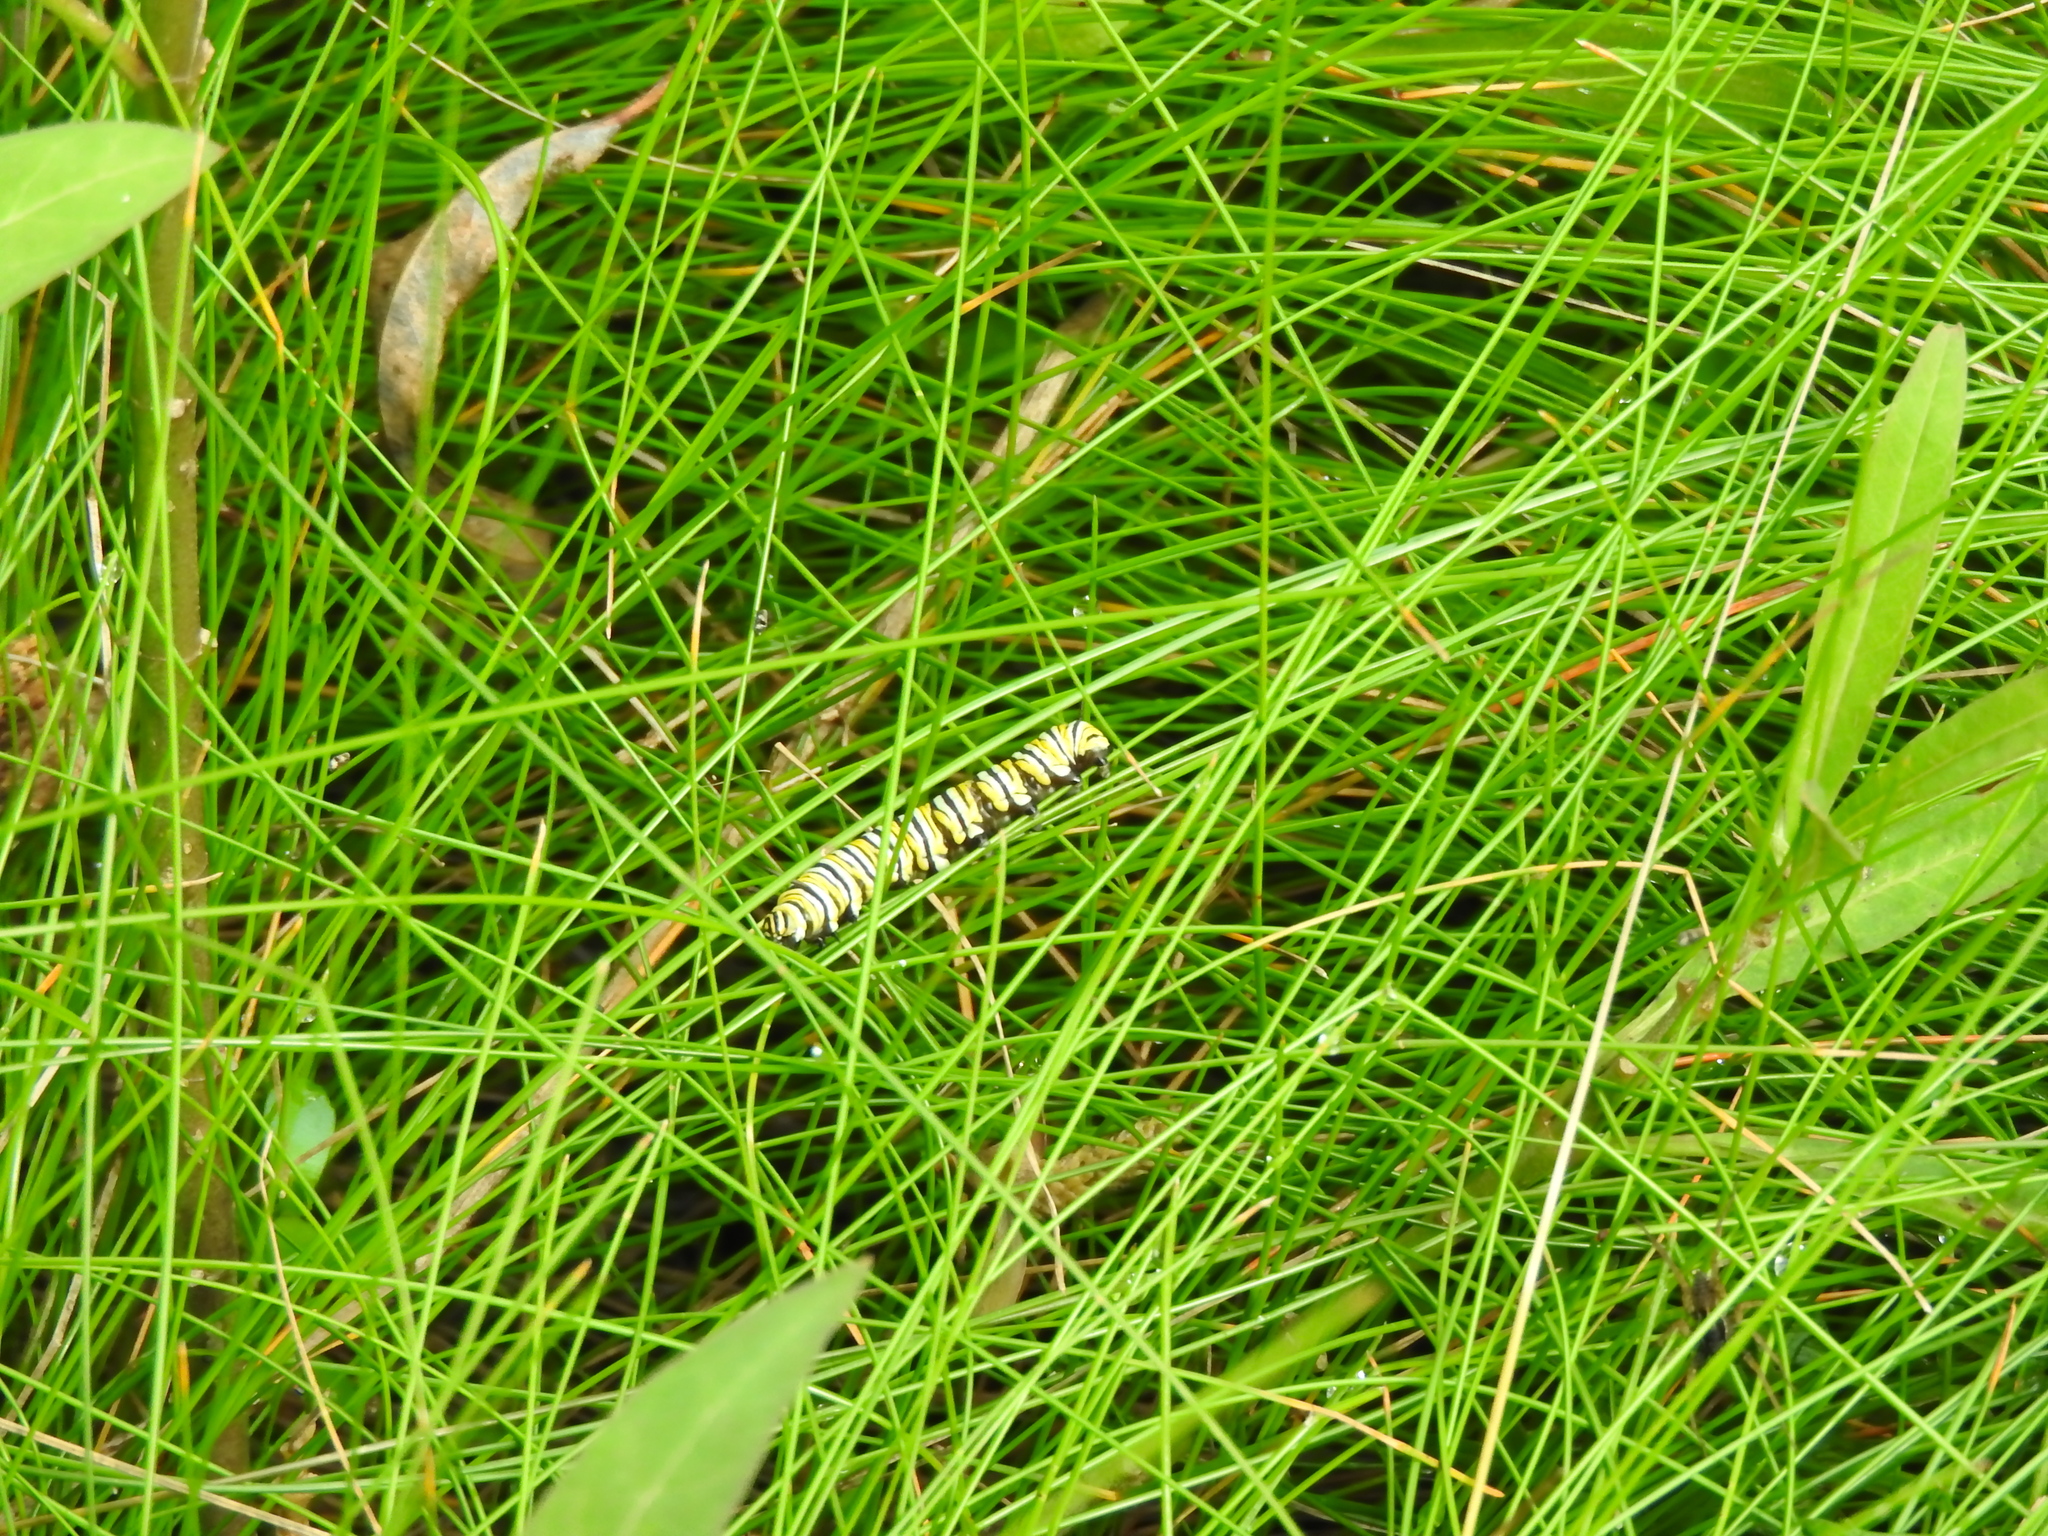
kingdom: Animalia
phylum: Arthropoda
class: Insecta
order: Lepidoptera
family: Nymphalidae
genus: Danaus
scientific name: Danaus plexippus
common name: Monarch
